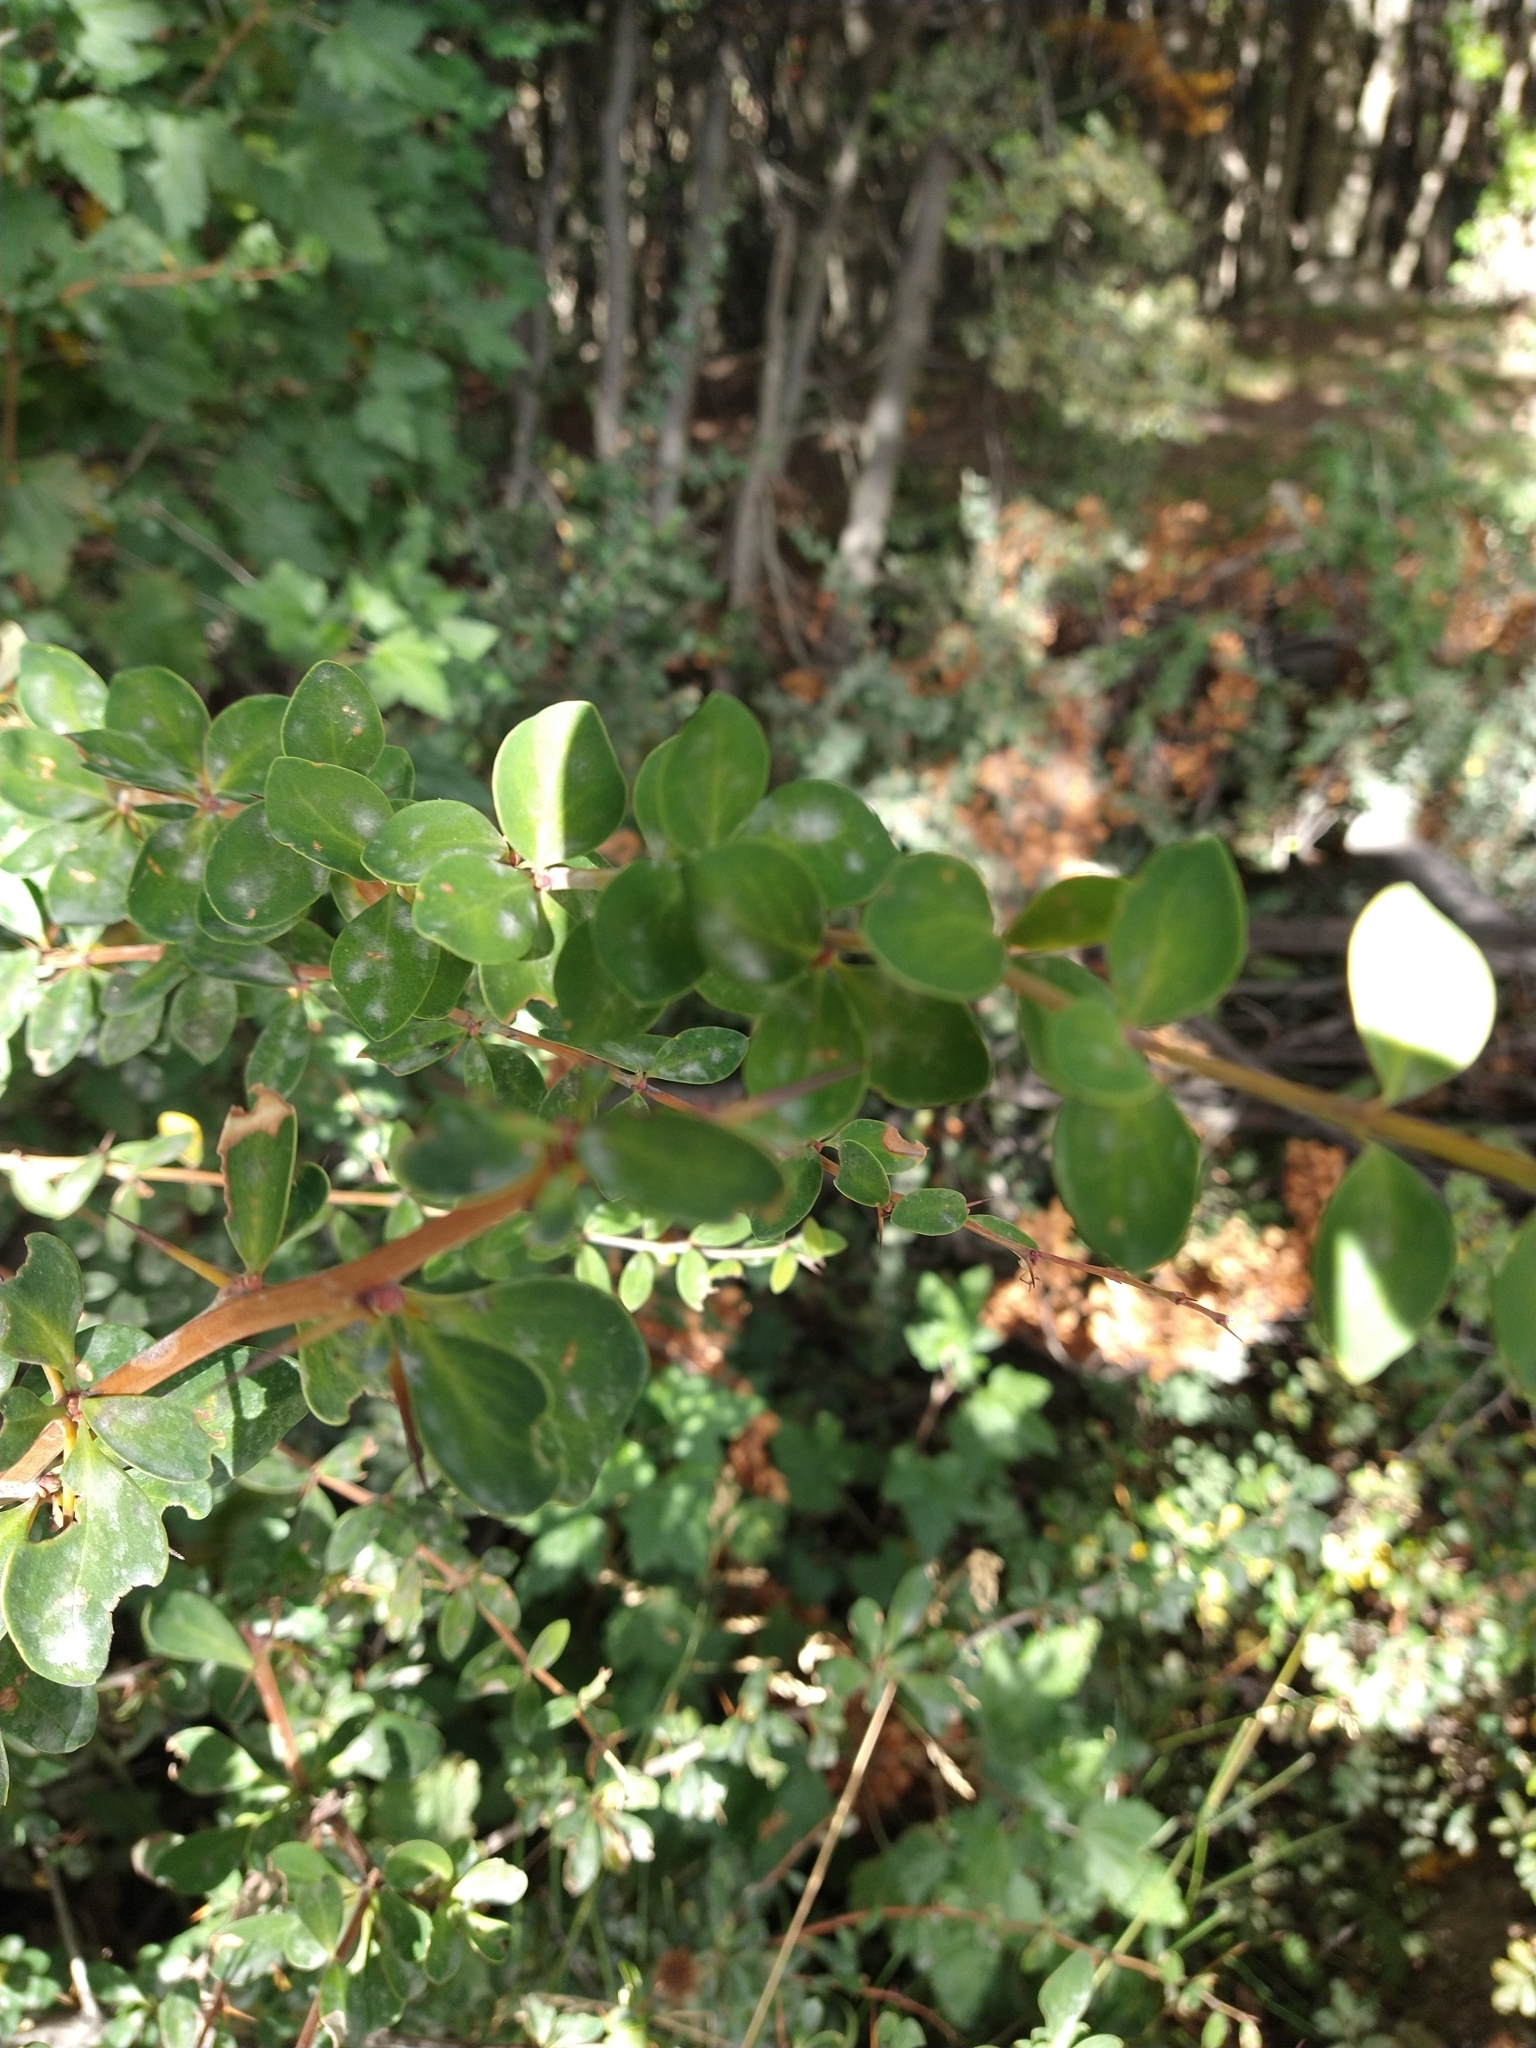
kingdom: Plantae
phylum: Tracheophyta
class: Magnoliopsida
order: Ranunculales
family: Berberidaceae
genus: Berberis
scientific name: Berberis microphylla
